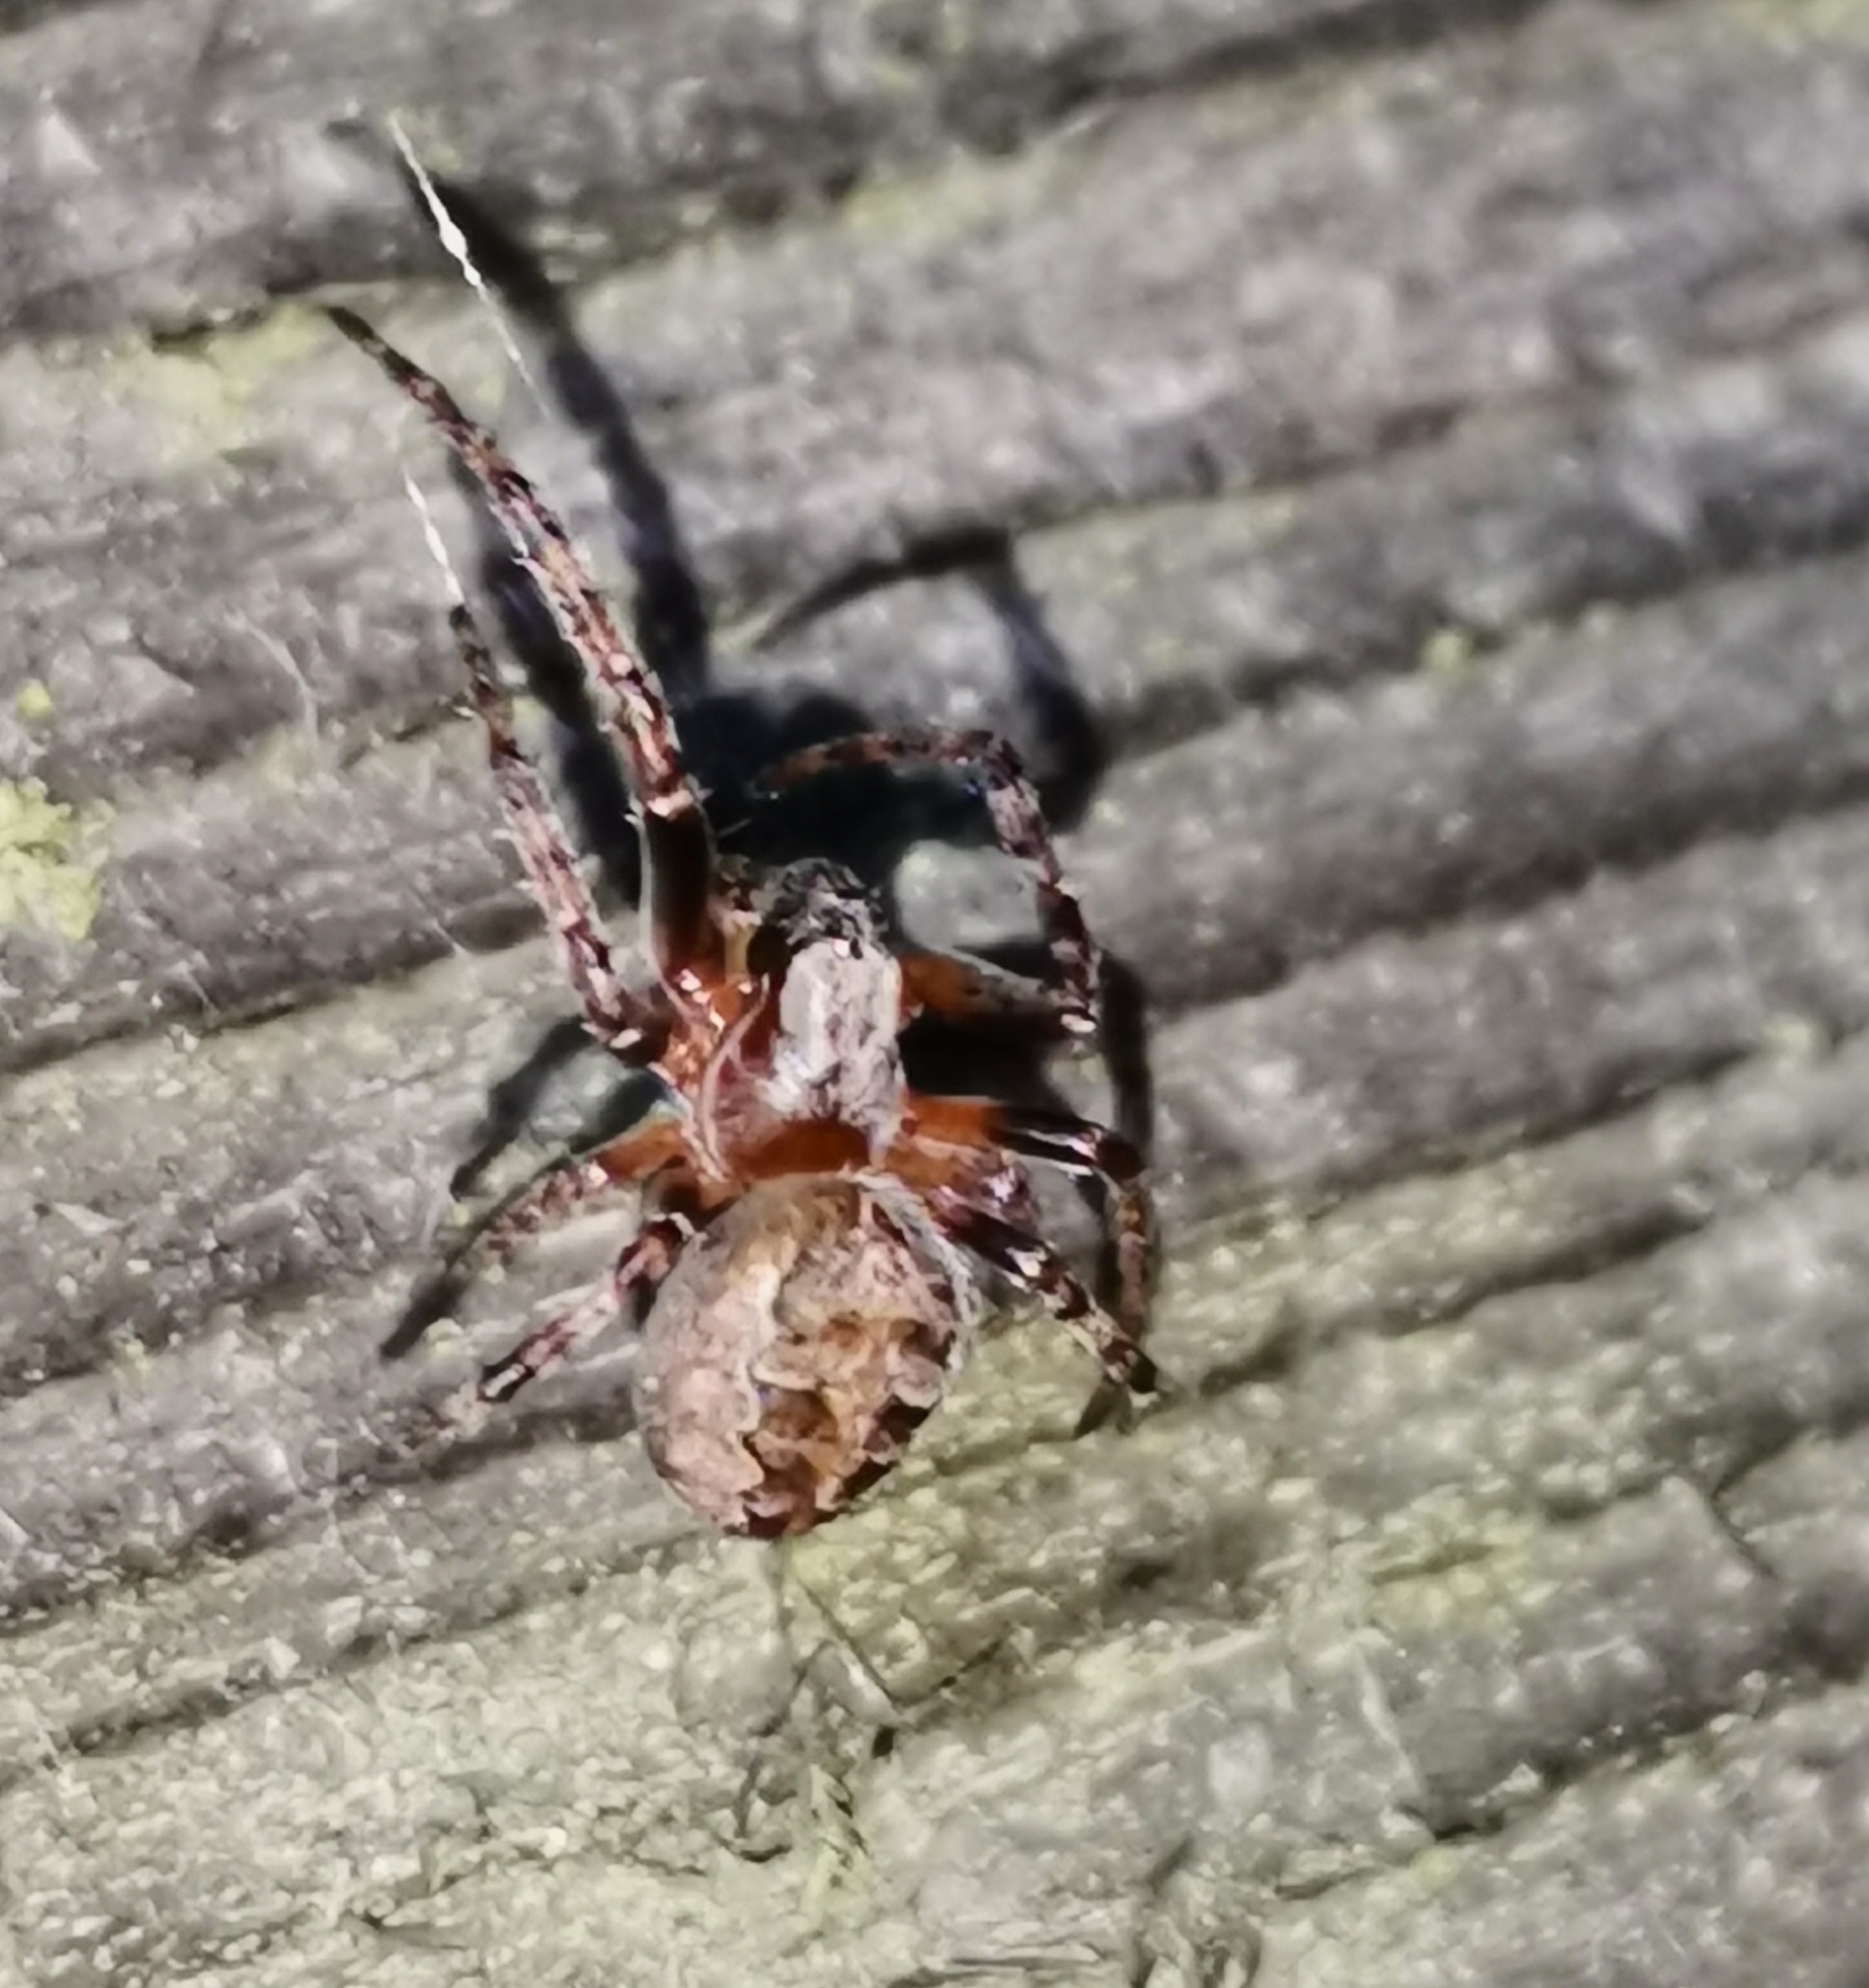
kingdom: Animalia
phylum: Arthropoda
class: Arachnida
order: Araneae
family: Araneidae
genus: Larinioides
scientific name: Larinioides patagiatus
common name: Ornamental orbweaver
